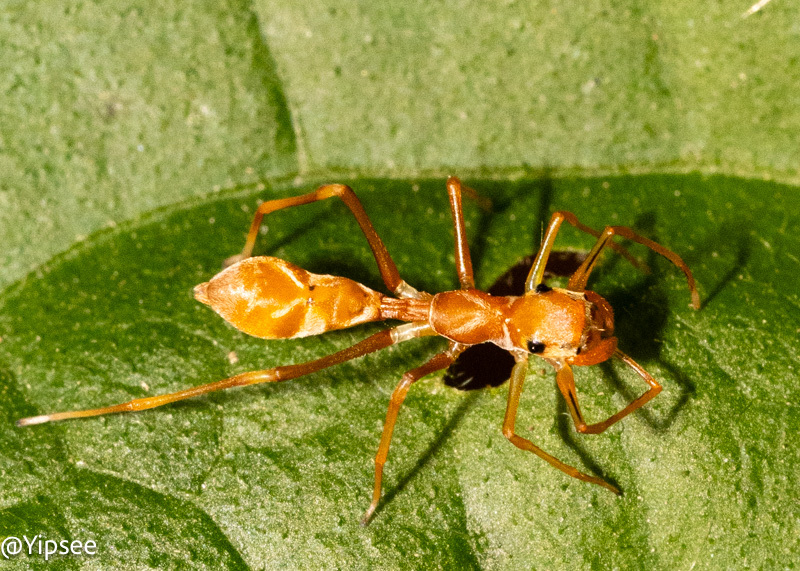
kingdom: Animalia
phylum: Arthropoda
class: Arachnida
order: Araneae
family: Salticidae
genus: Myrmaplata
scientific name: Myrmaplata plataleoides
